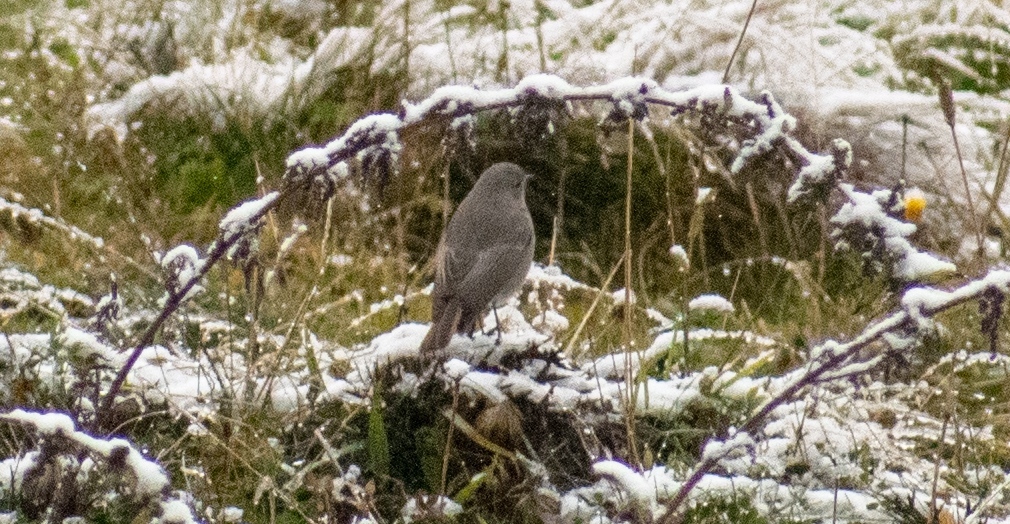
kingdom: Animalia
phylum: Chordata
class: Aves
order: Passeriformes
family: Muscicapidae
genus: Phoenicurus
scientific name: Phoenicurus ochruros
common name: Black redstart
